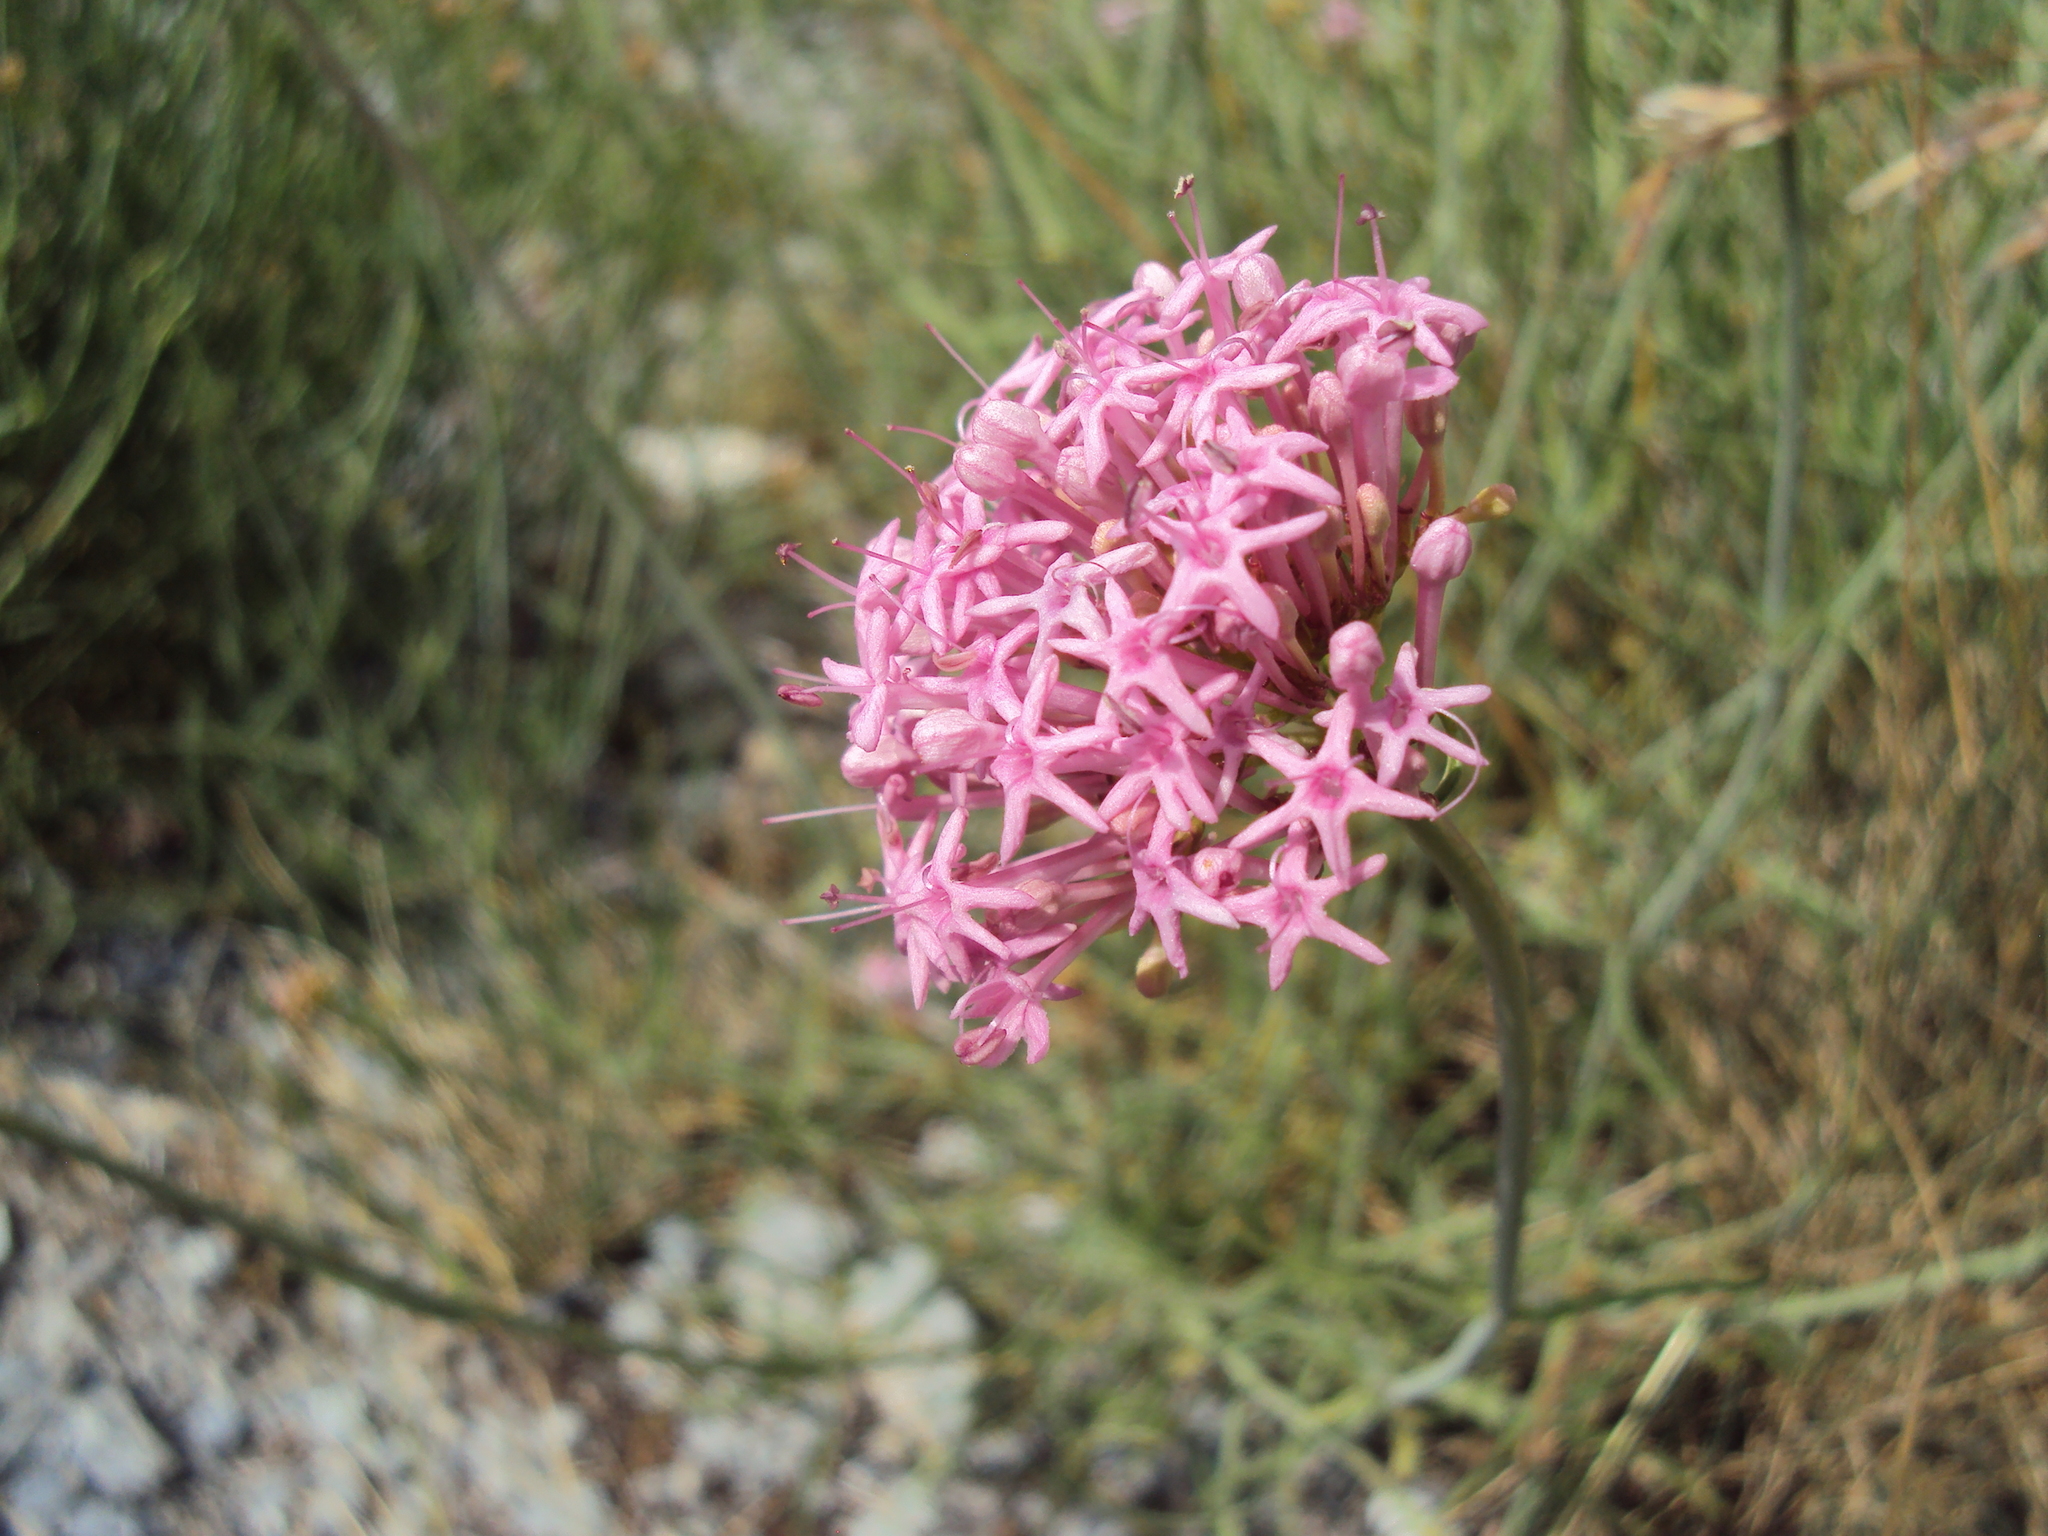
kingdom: Plantae
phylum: Tracheophyta
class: Magnoliopsida
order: Dipsacales
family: Caprifoliaceae
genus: Centranthus
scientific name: Centranthus angustifolius
